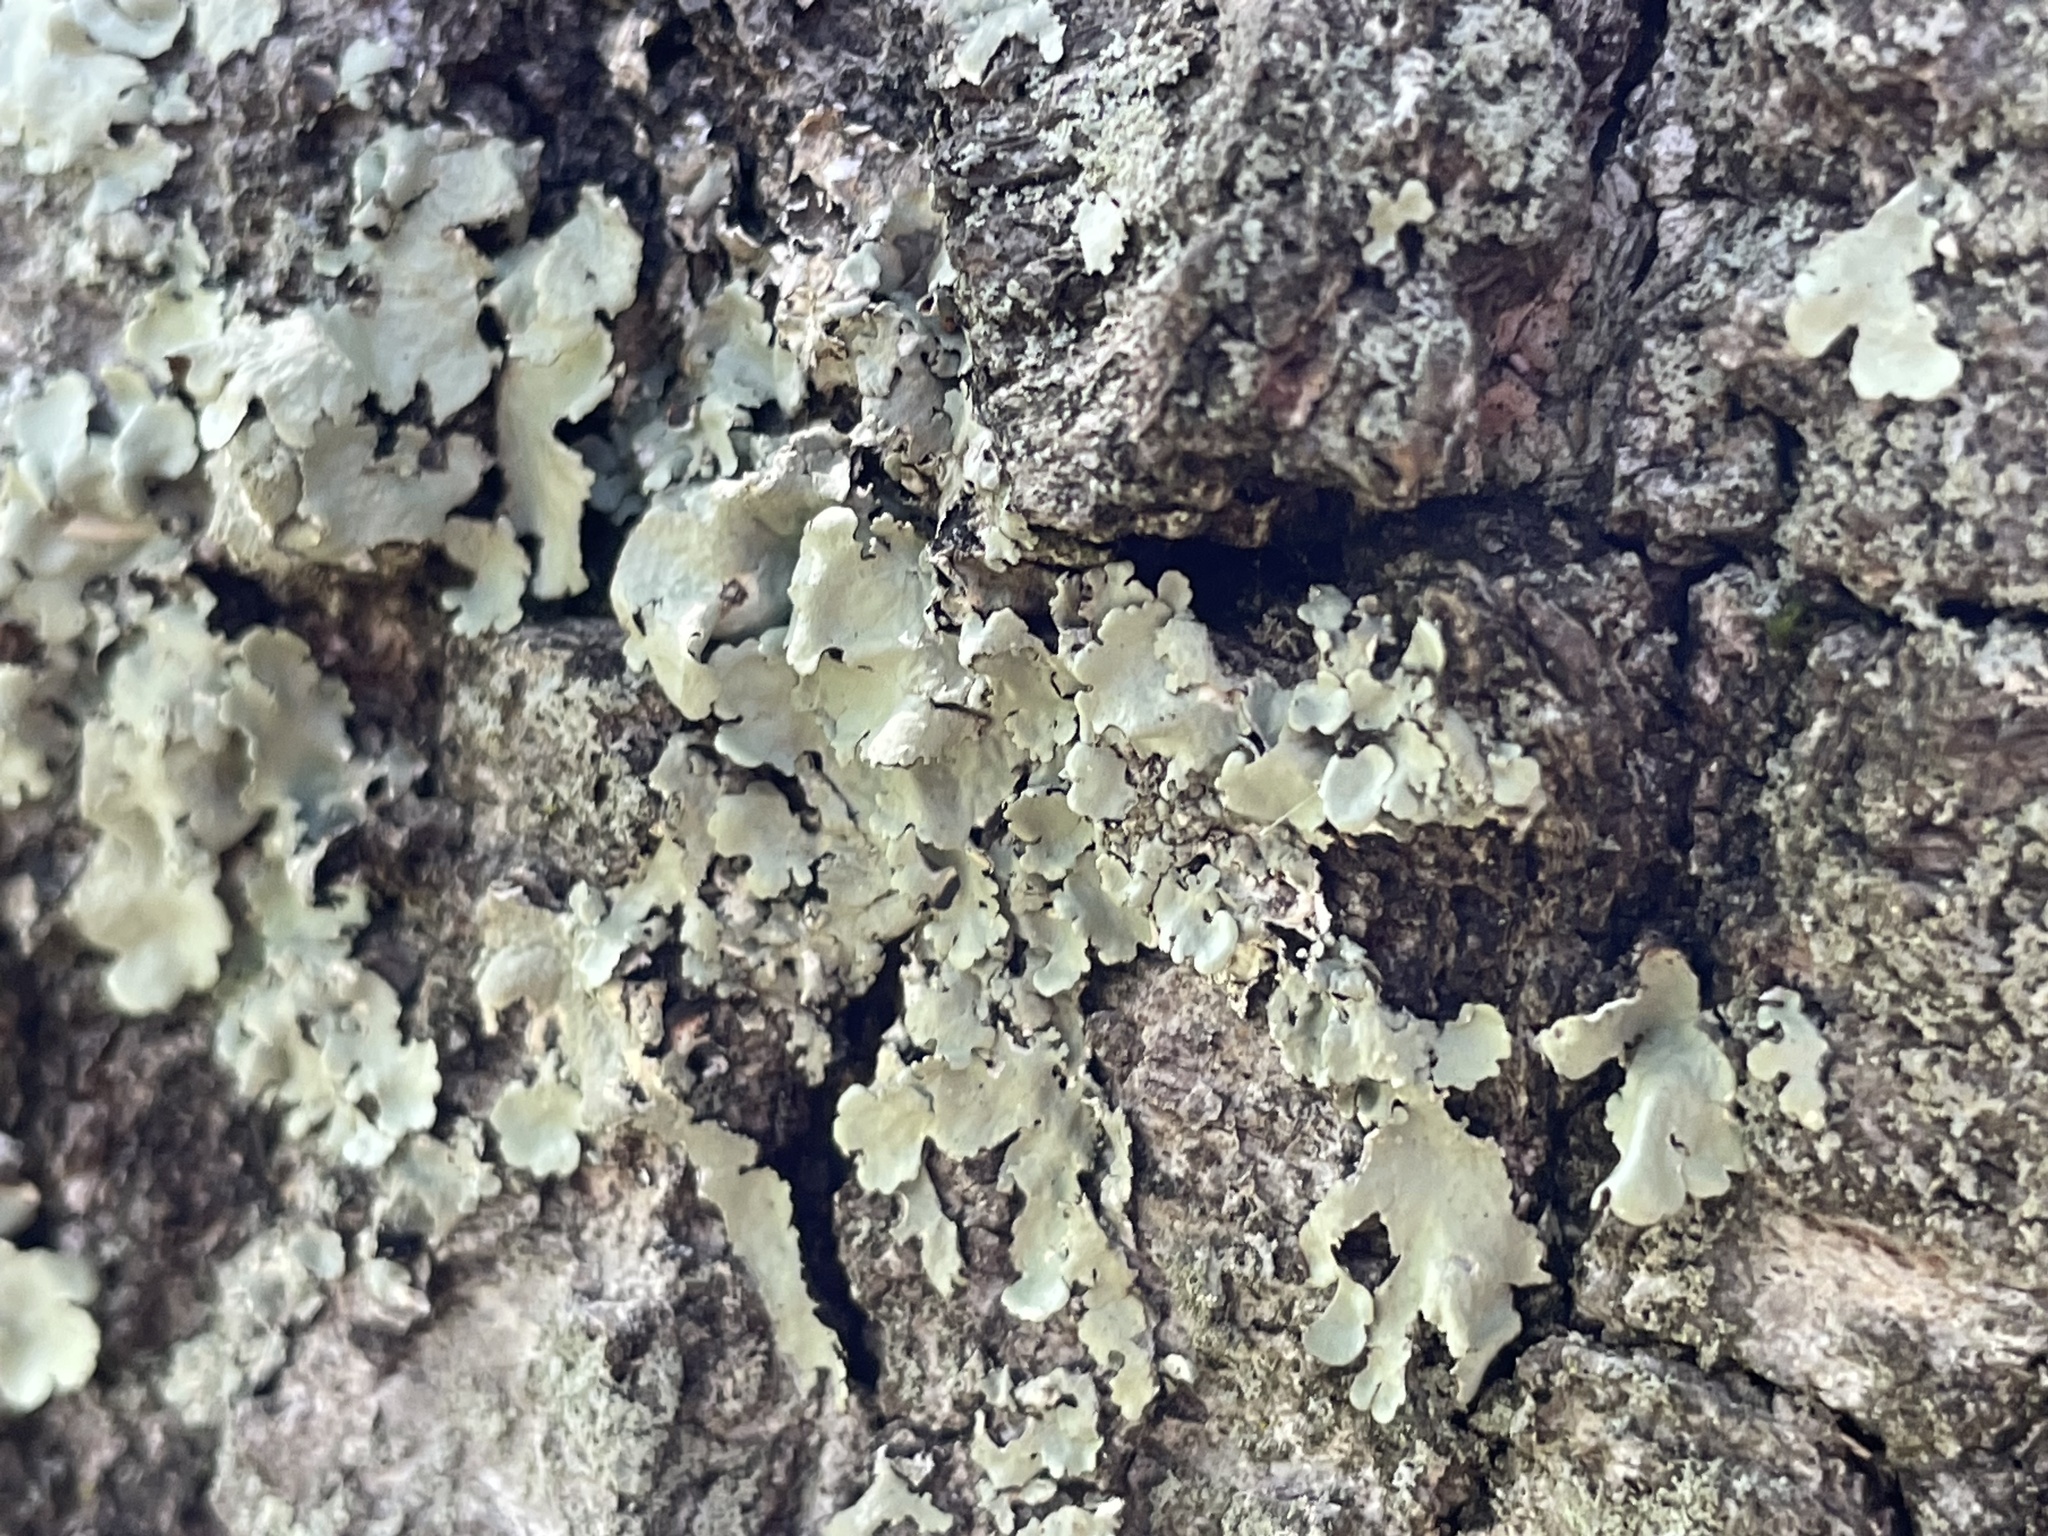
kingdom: Fungi
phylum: Ascomycota
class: Lecanoromycetes
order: Lecanorales
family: Parmeliaceae
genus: Flavoparmelia
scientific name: Flavoparmelia caperata
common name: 40-mile per hour lichen
